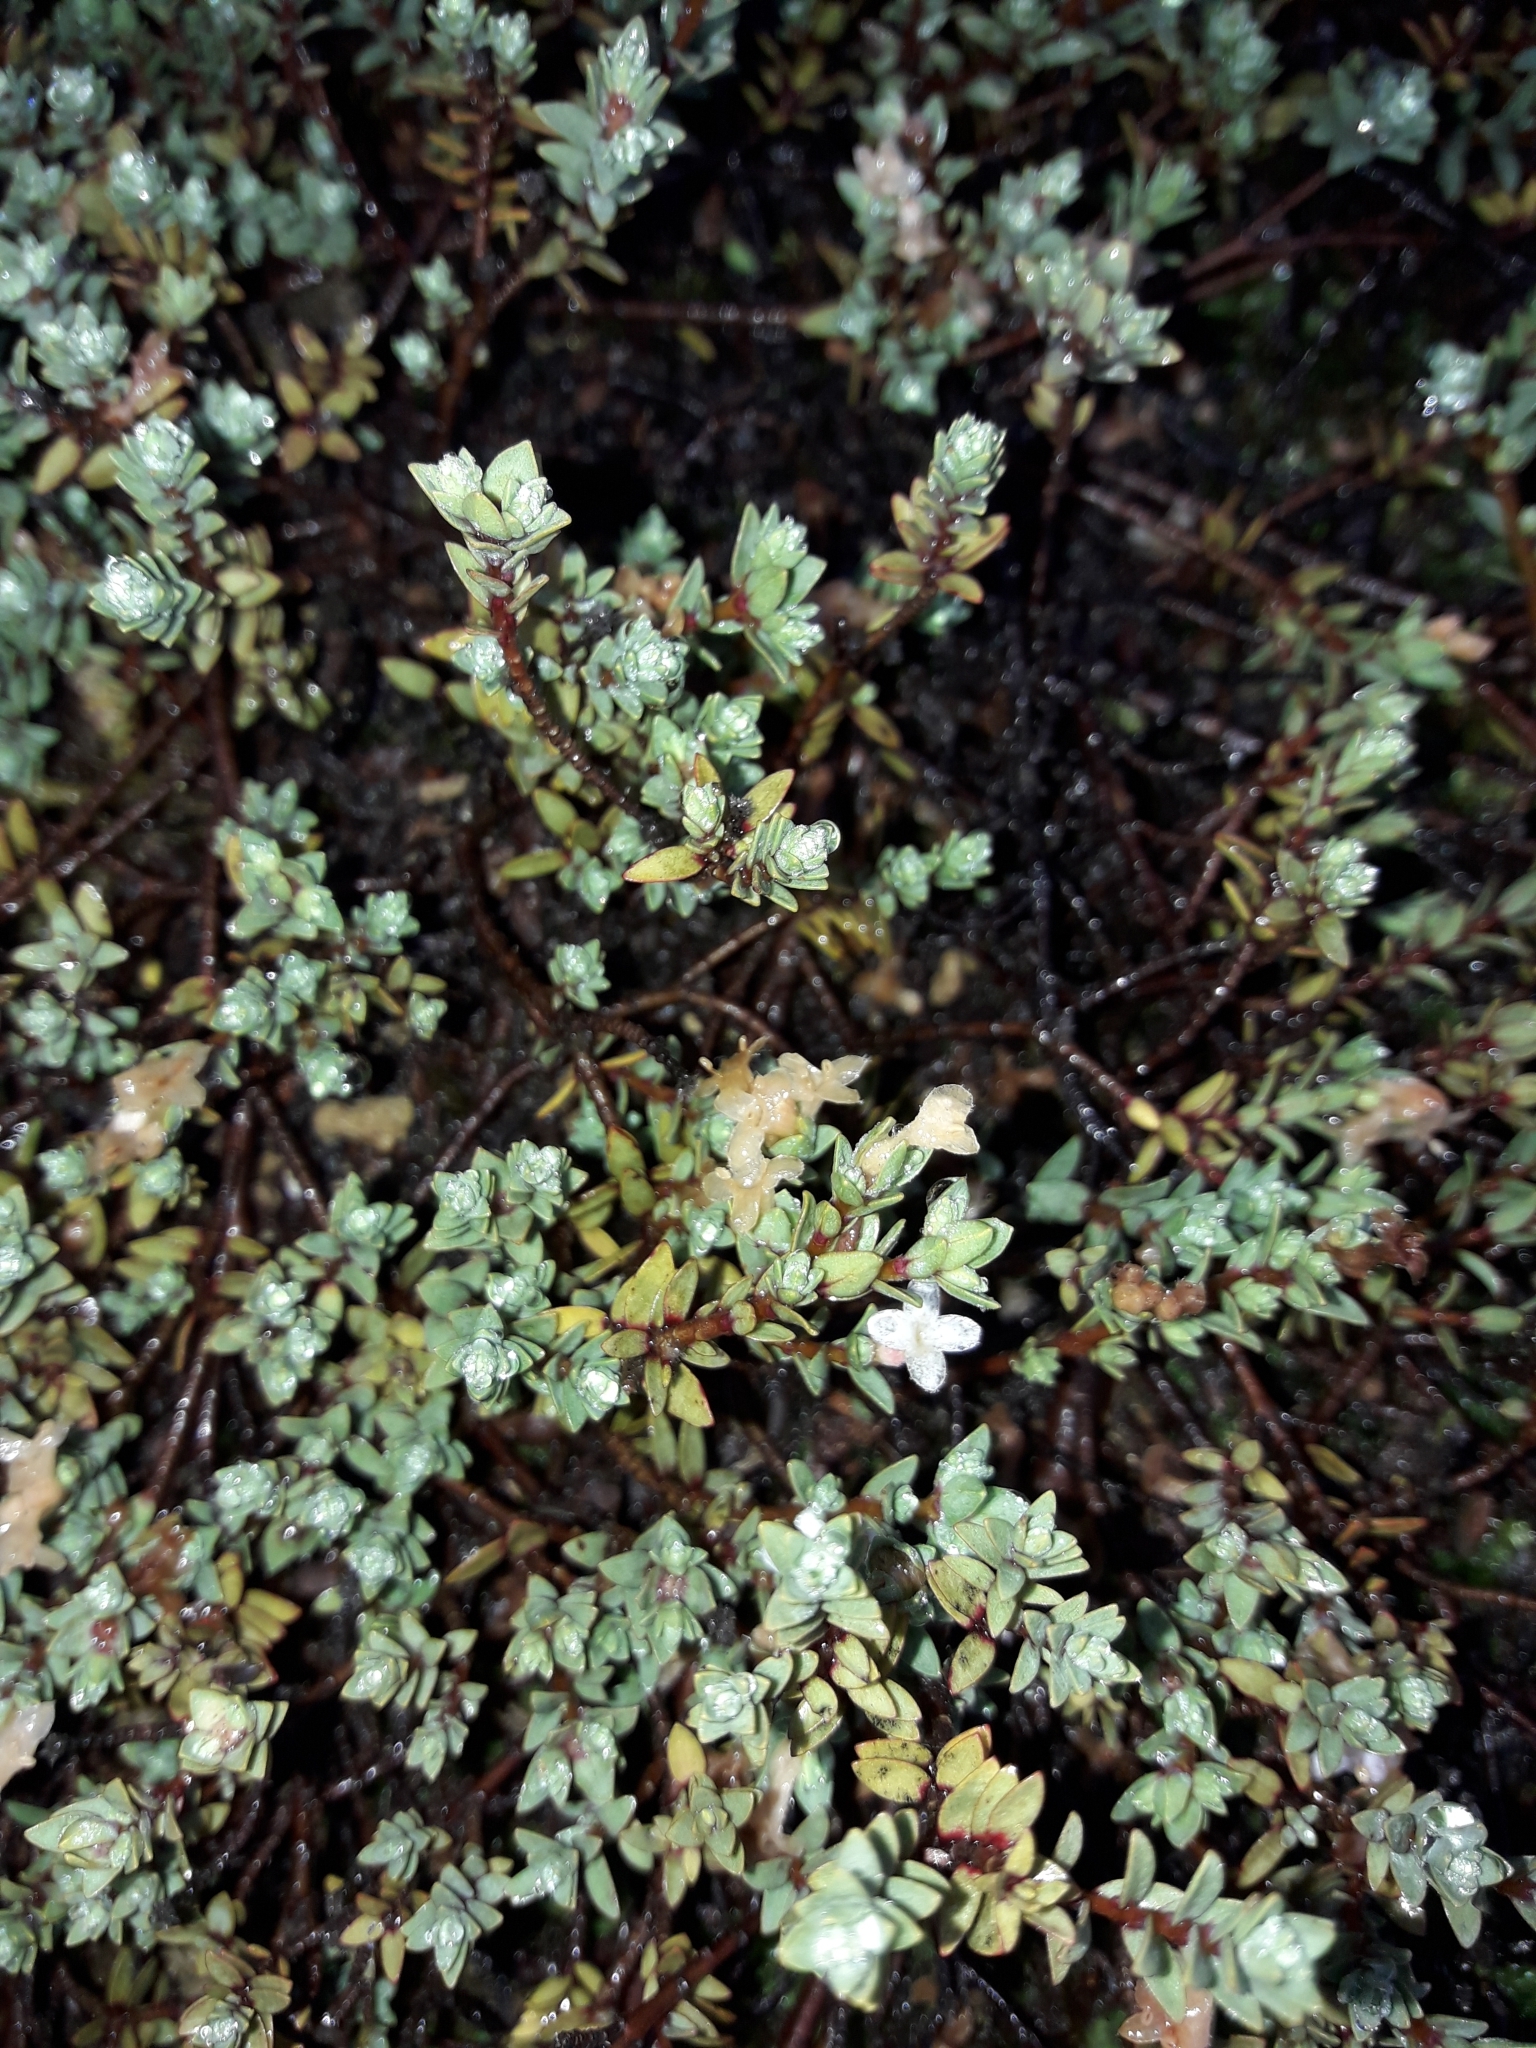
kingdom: Plantae
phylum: Tracheophyta
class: Magnoliopsida
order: Malvales
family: Thymelaeaceae
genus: Pimelea
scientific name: Pimelea prostrata
